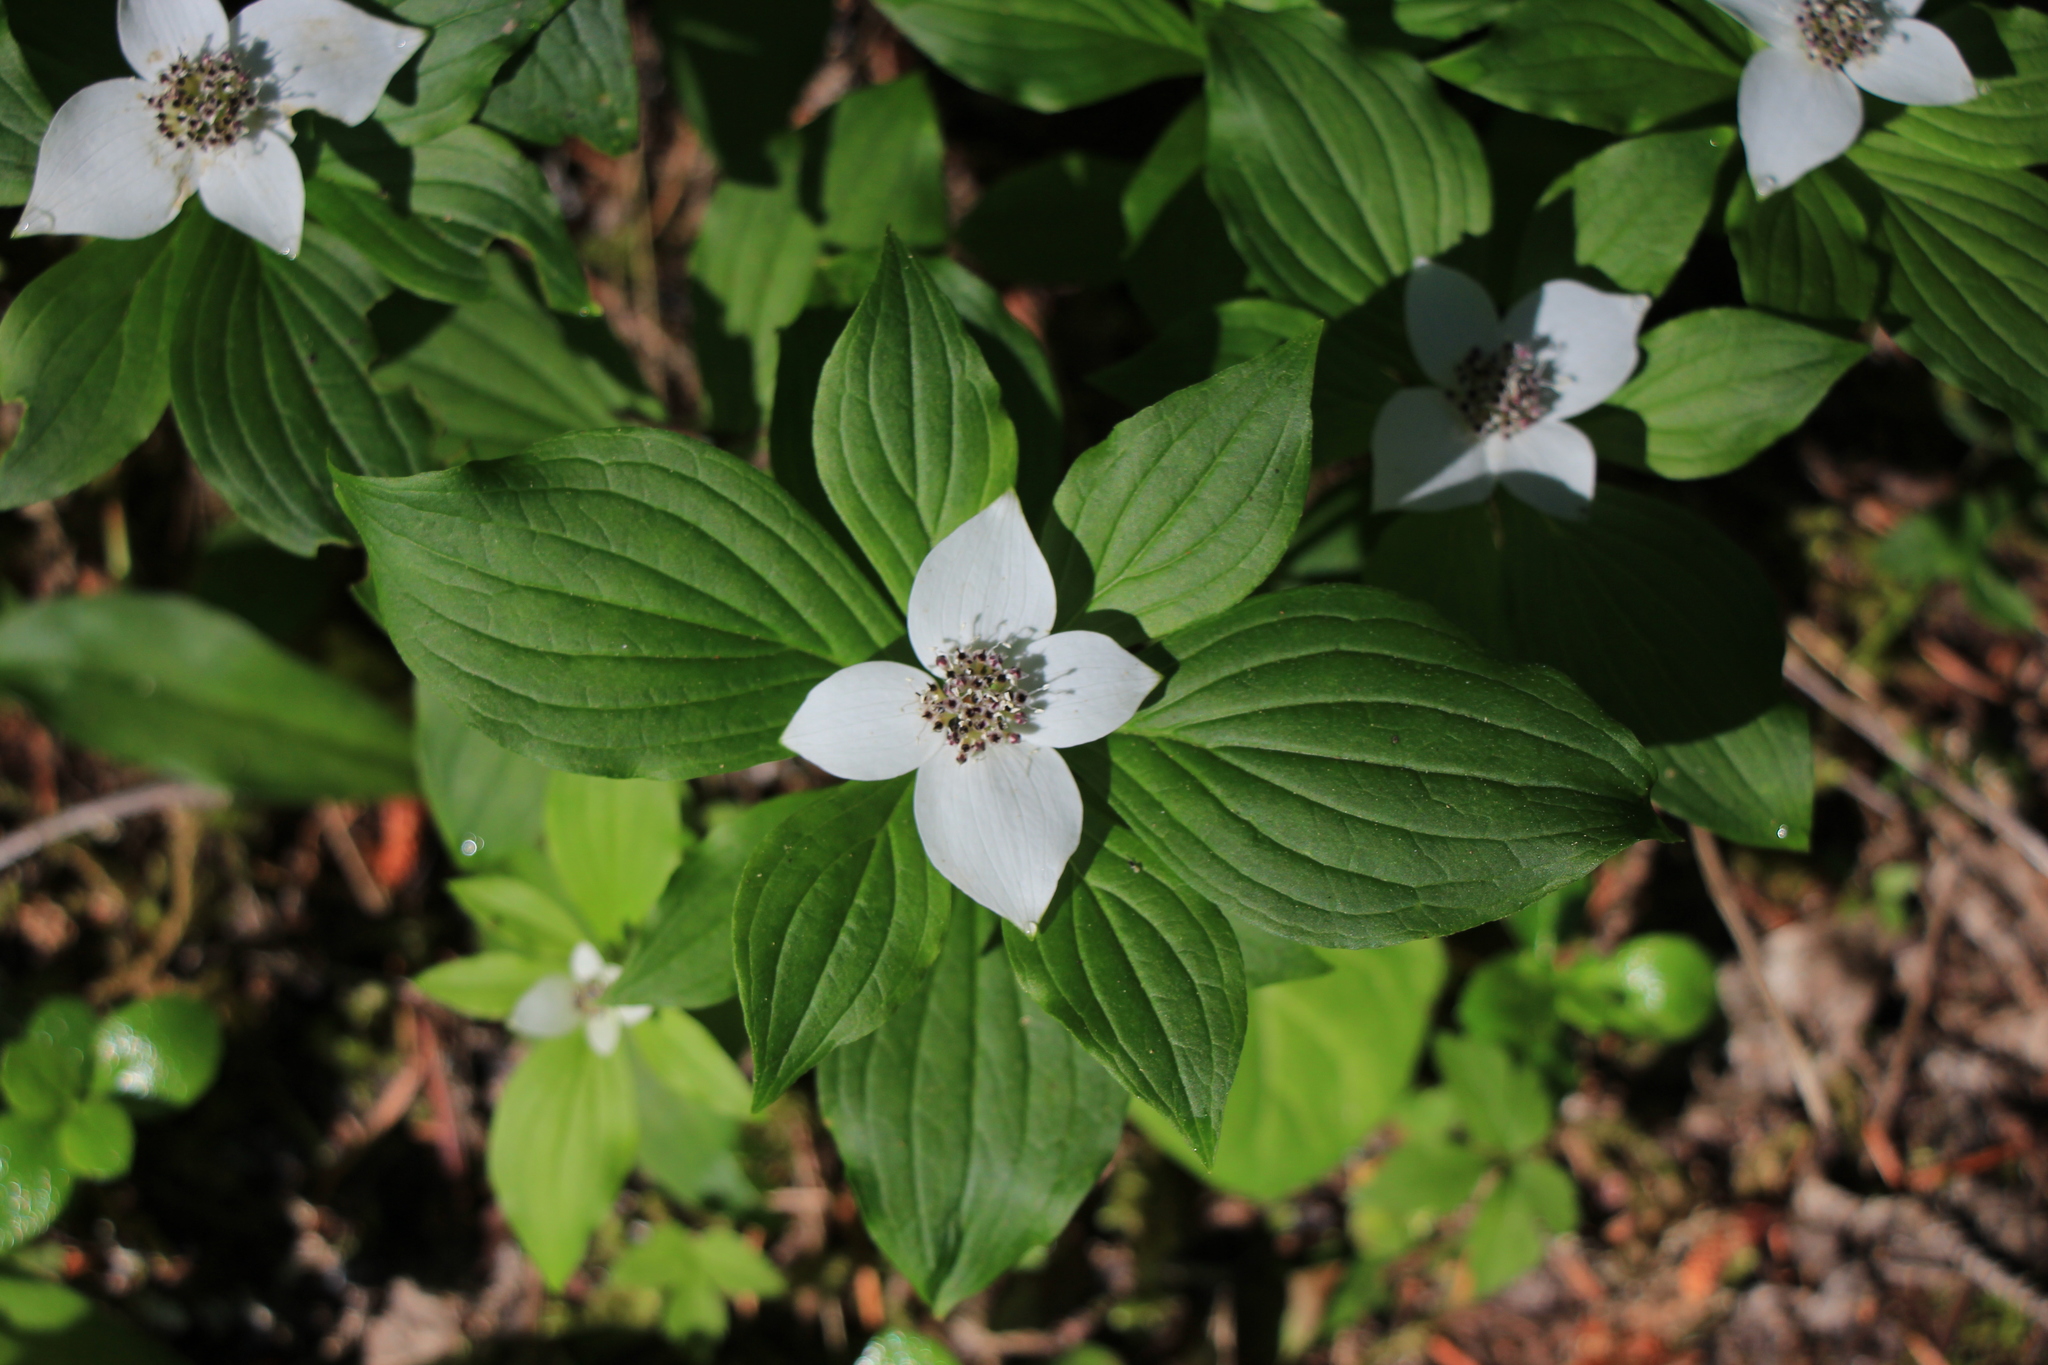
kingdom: Plantae
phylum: Tracheophyta
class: Magnoliopsida
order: Cornales
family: Cornaceae
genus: Cornus
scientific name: Cornus unalaschkensis
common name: Alaska bunchberry
